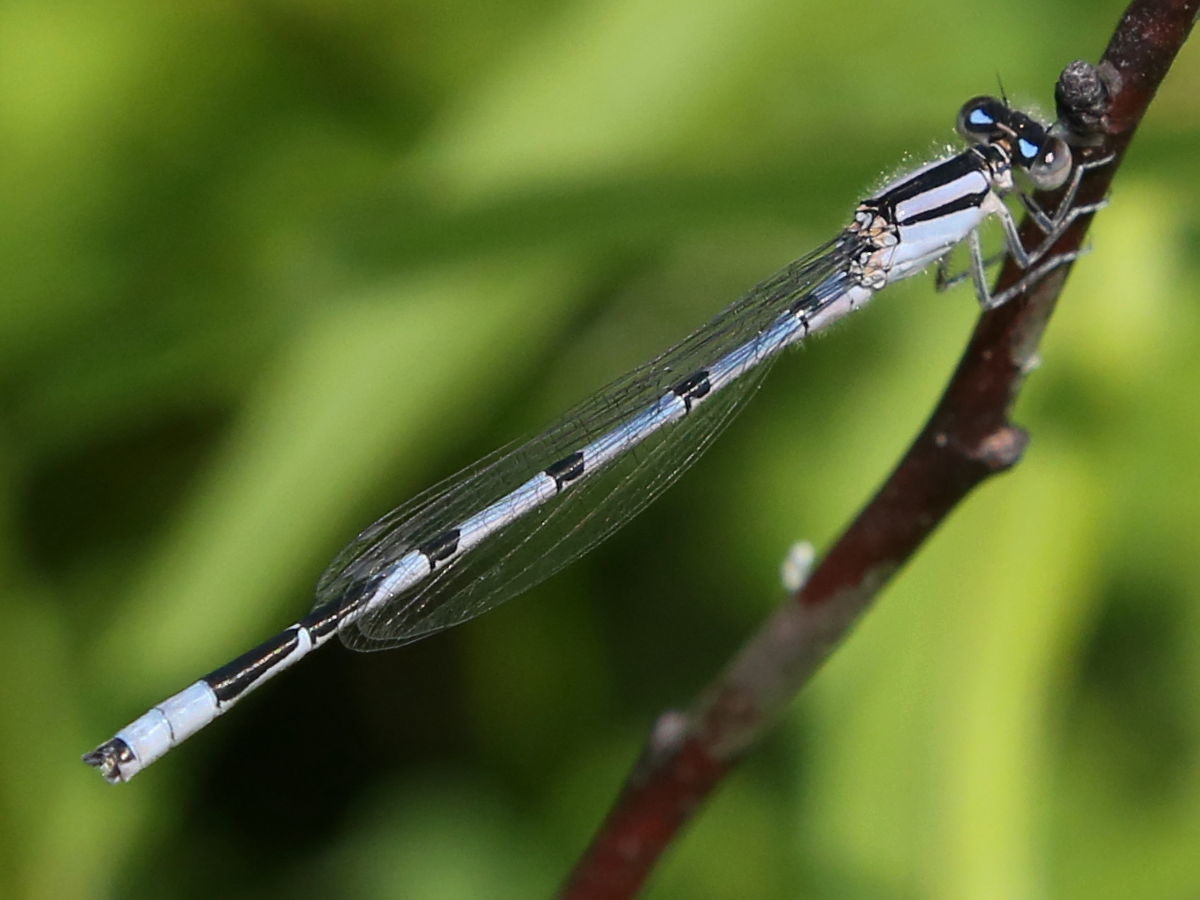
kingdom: Animalia
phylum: Arthropoda
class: Insecta
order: Odonata
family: Coenagrionidae
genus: Enallagma
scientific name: Enallagma civile
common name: Damselfly
